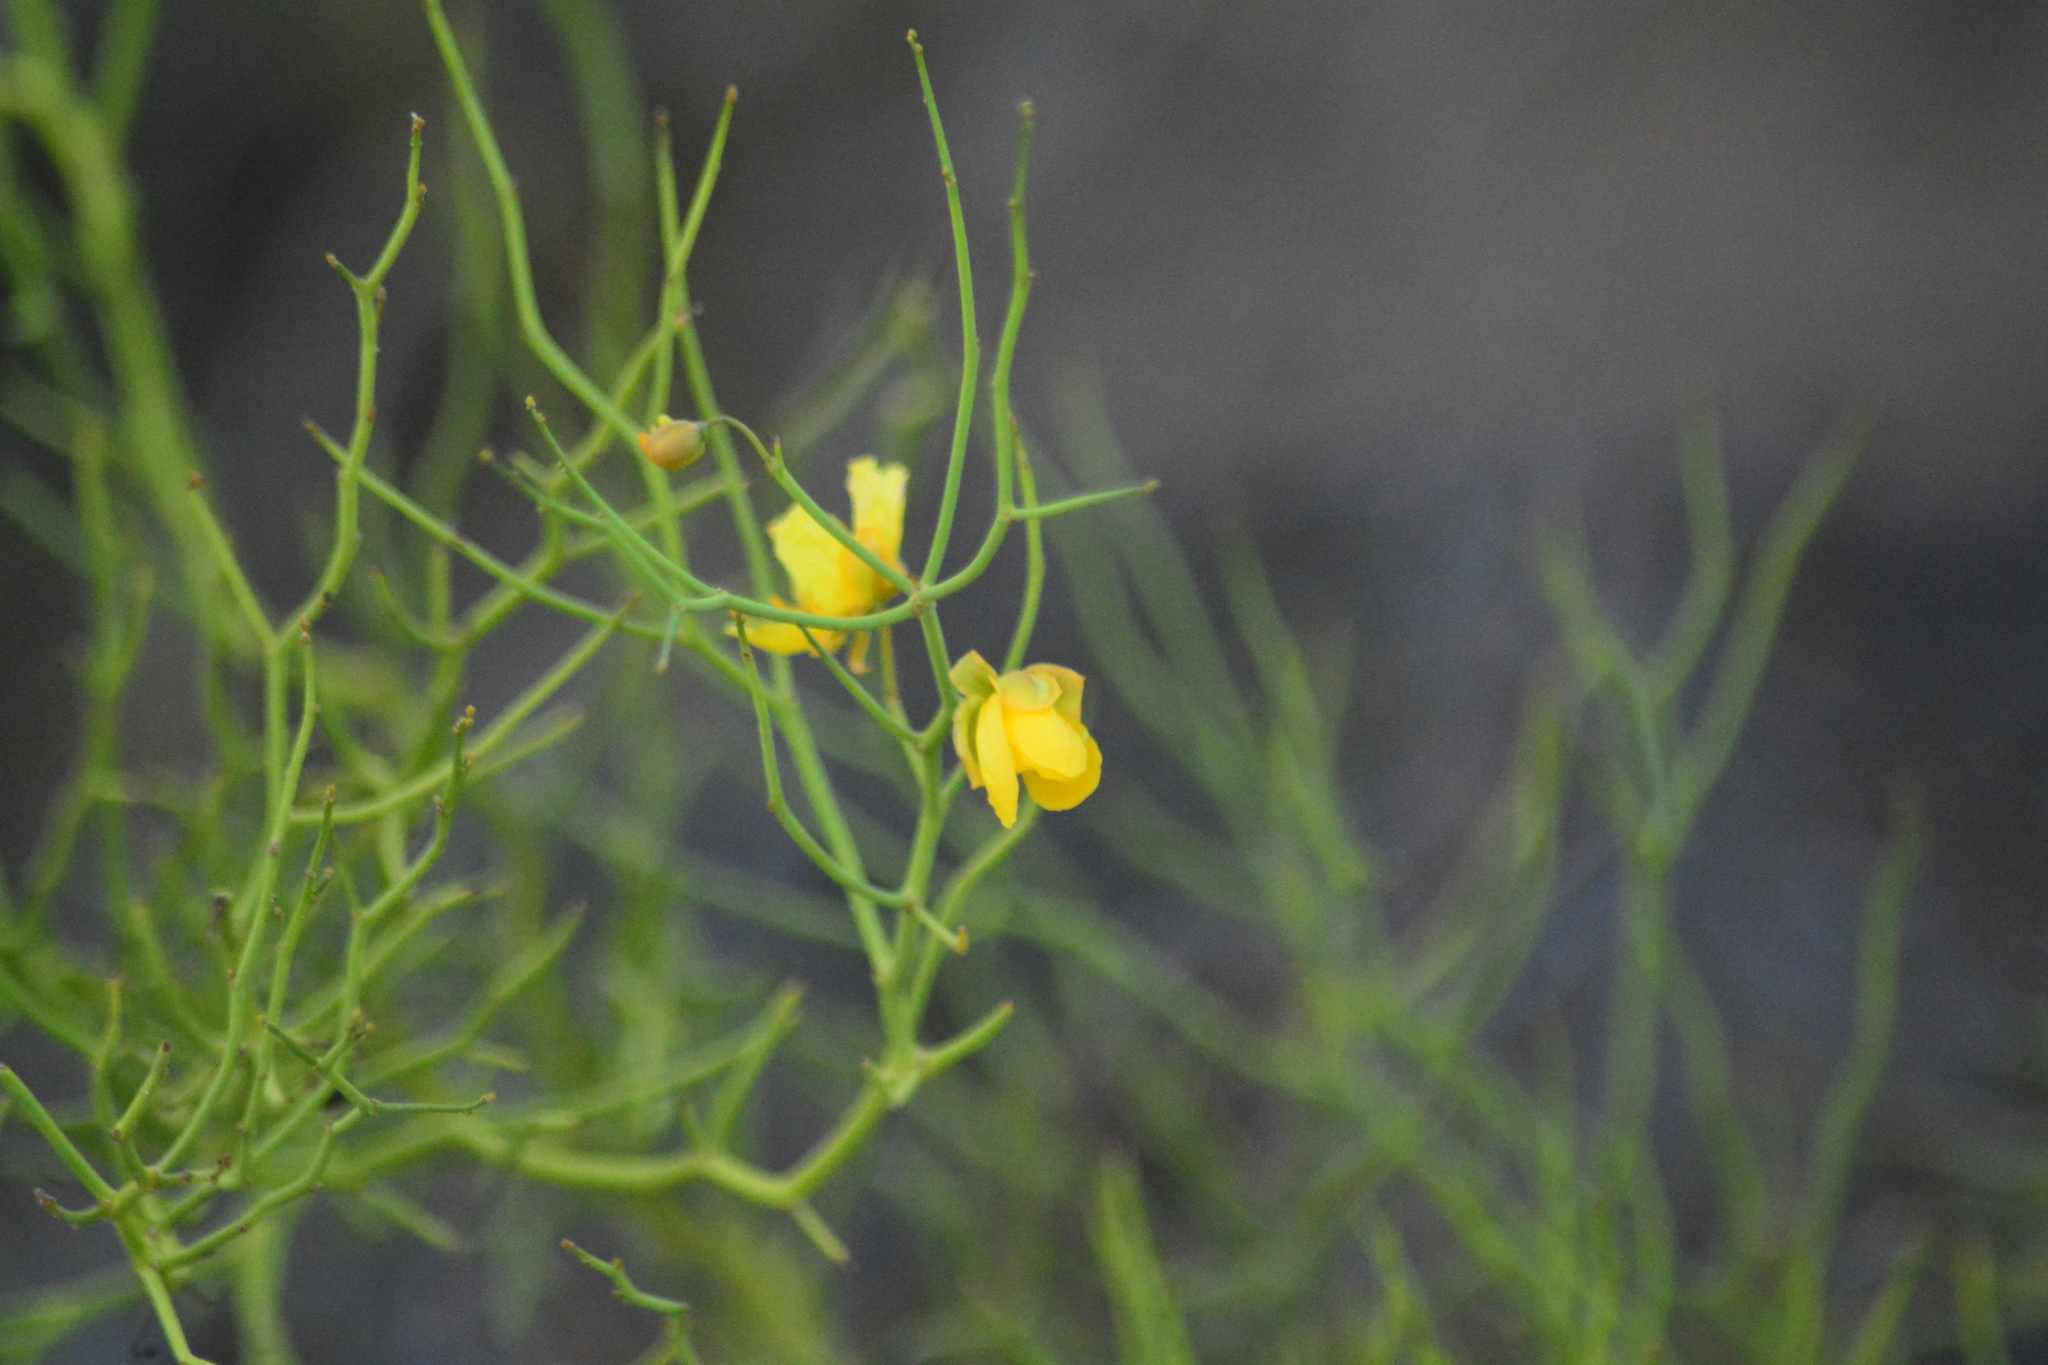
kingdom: Plantae
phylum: Tracheophyta
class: Magnoliopsida
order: Fabales
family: Fabaceae
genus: Senna
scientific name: Senna aphylla
